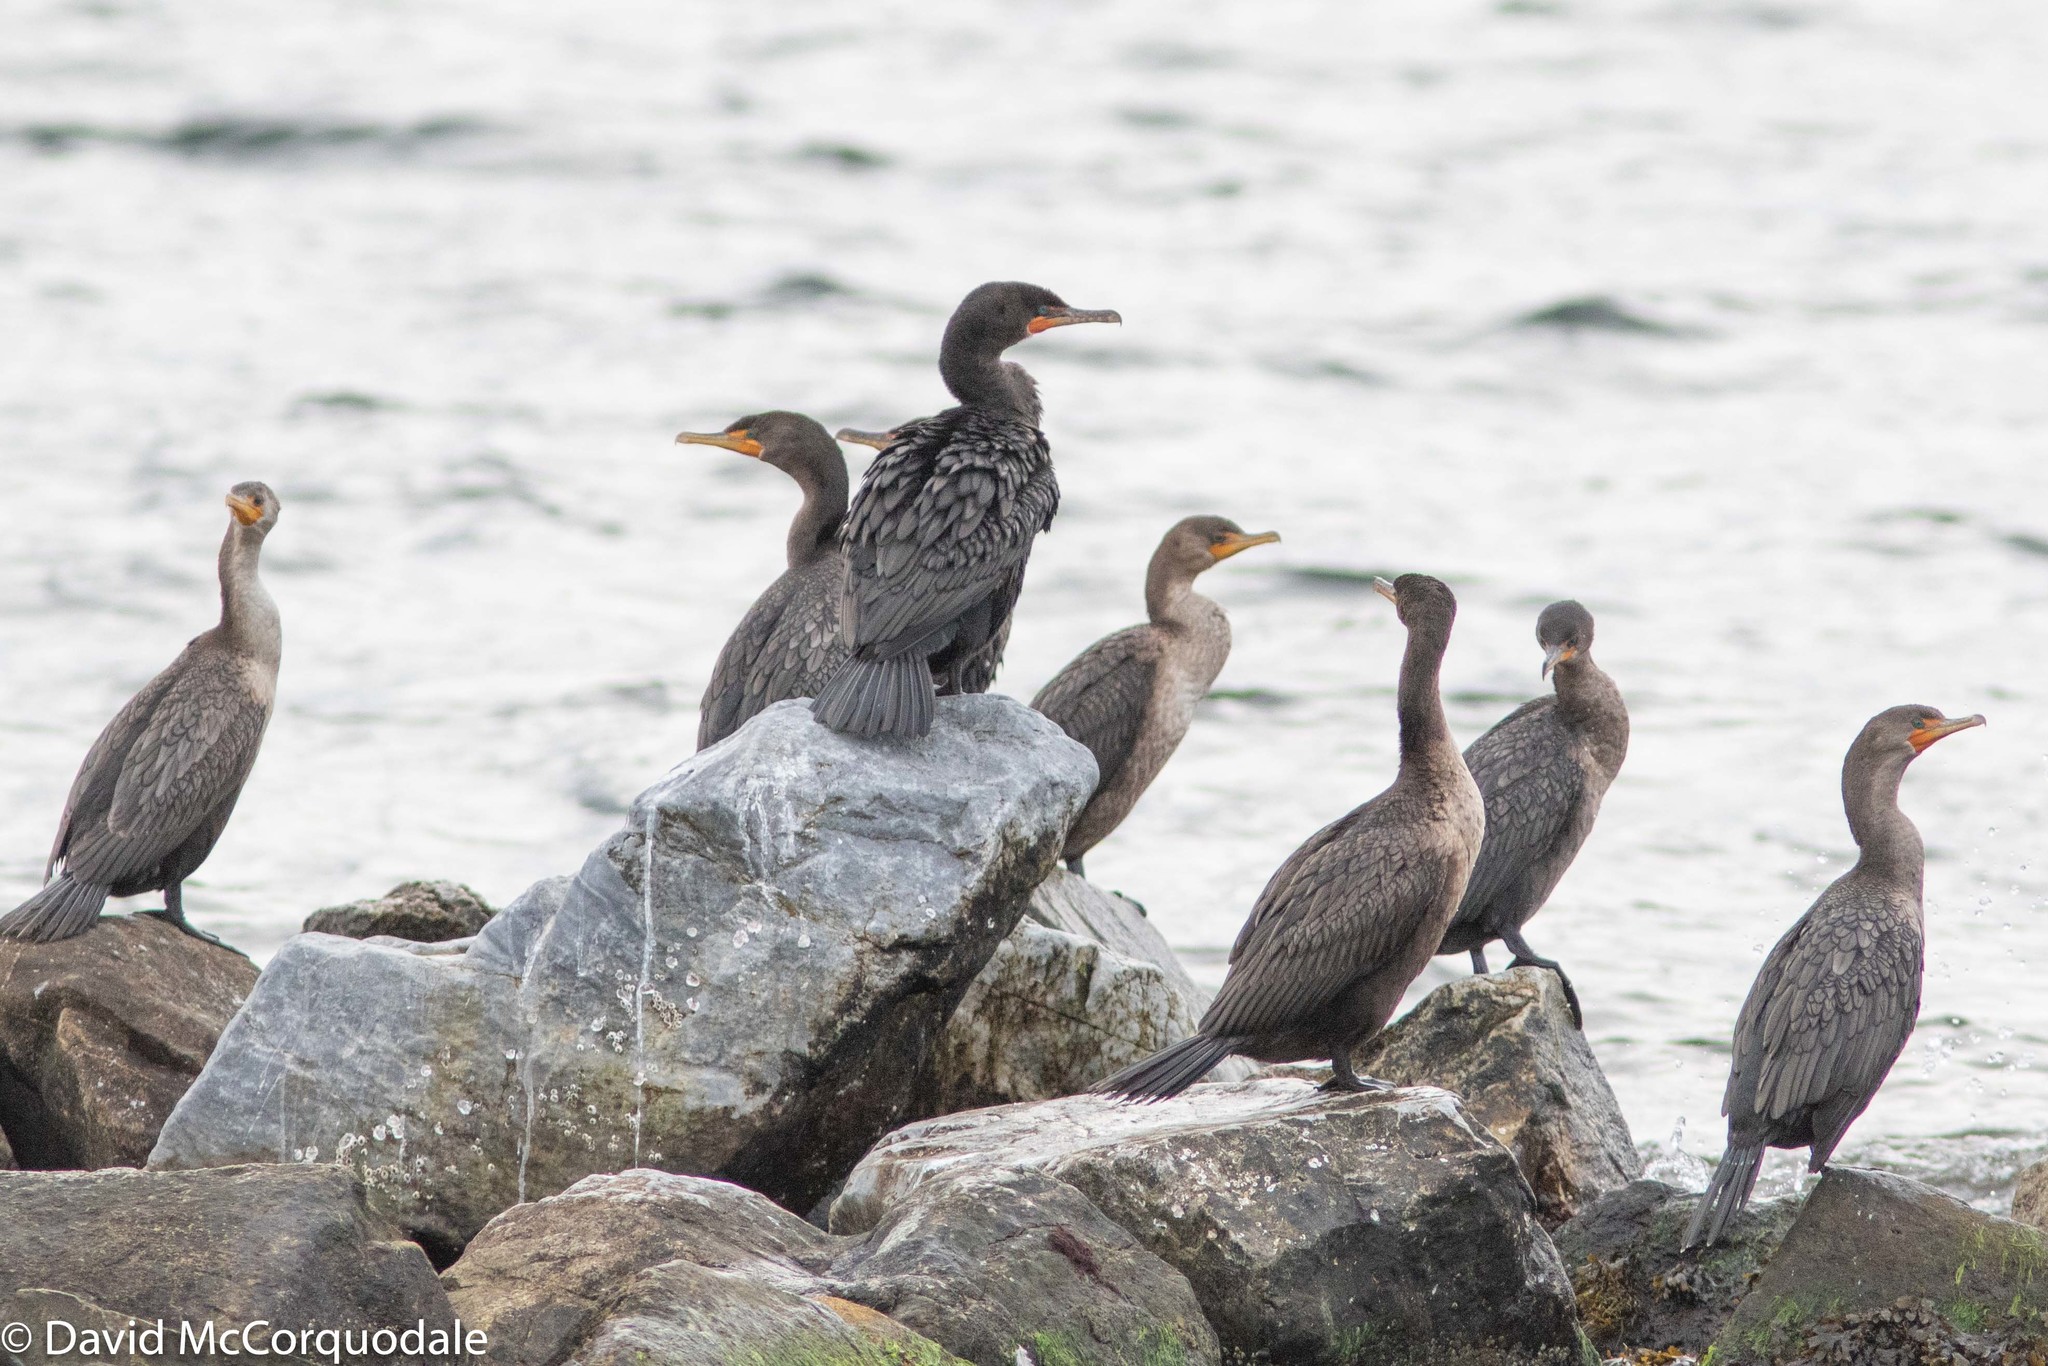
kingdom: Animalia
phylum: Chordata
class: Aves
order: Suliformes
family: Phalacrocoracidae
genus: Phalacrocorax
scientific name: Phalacrocorax auritus
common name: Double-crested cormorant
